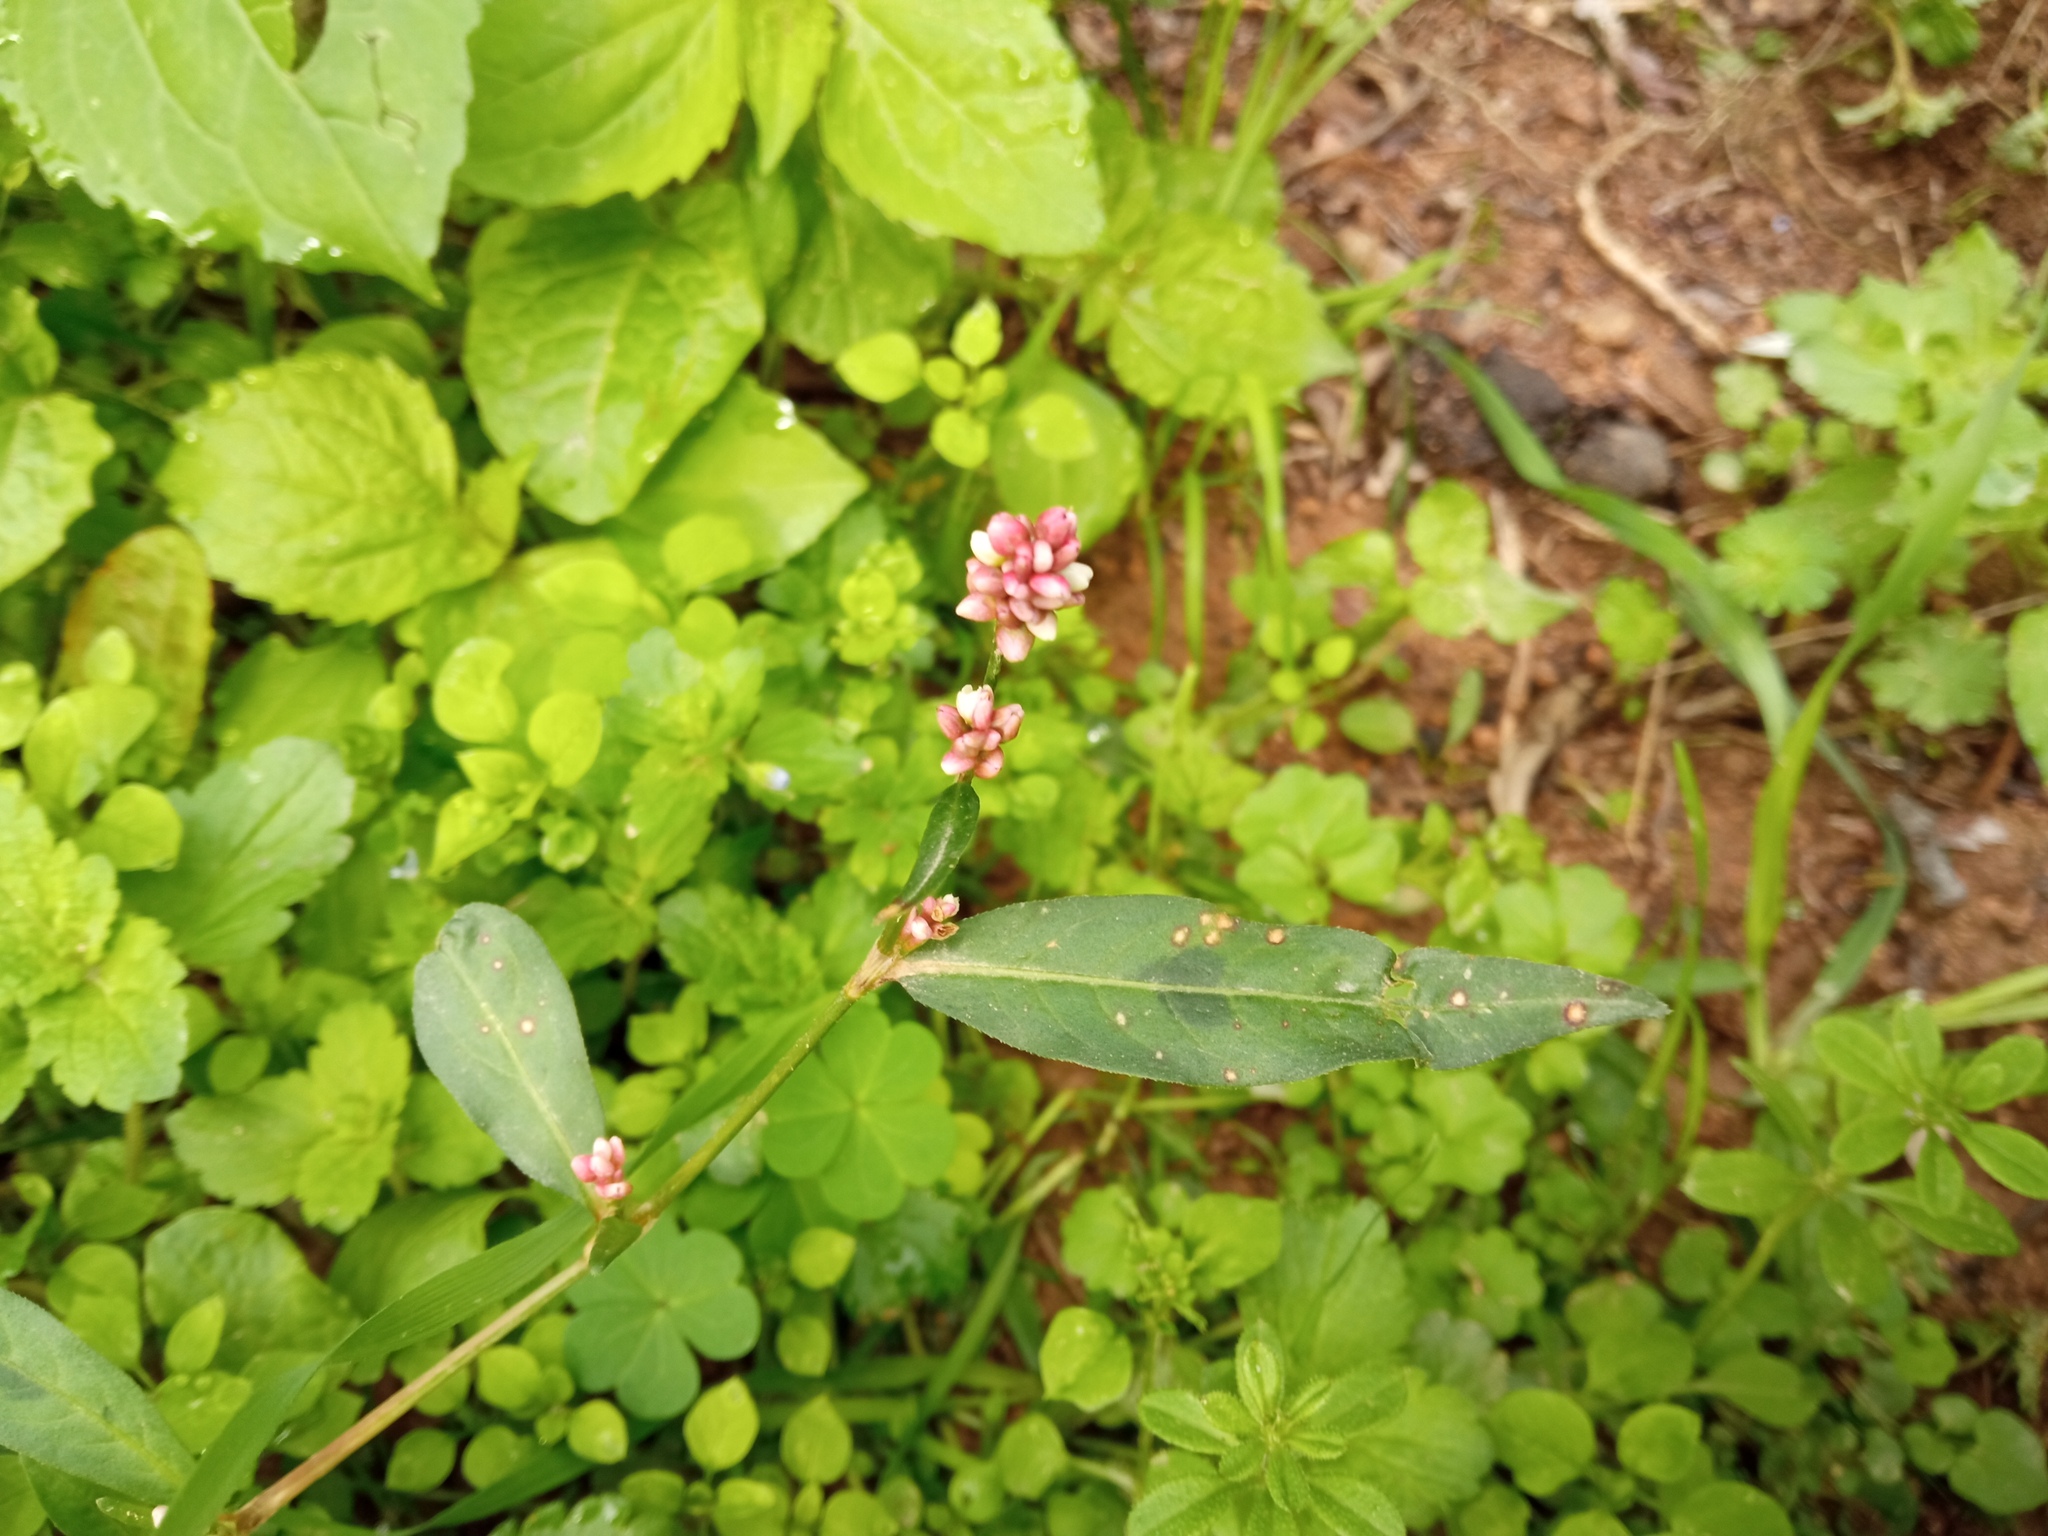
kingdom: Plantae
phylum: Tracheophyta
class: Magnoliopsida
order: Caryophyllales
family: Polygonaceae
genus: Persicaria
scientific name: Persicaria maculosa
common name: Redshank
